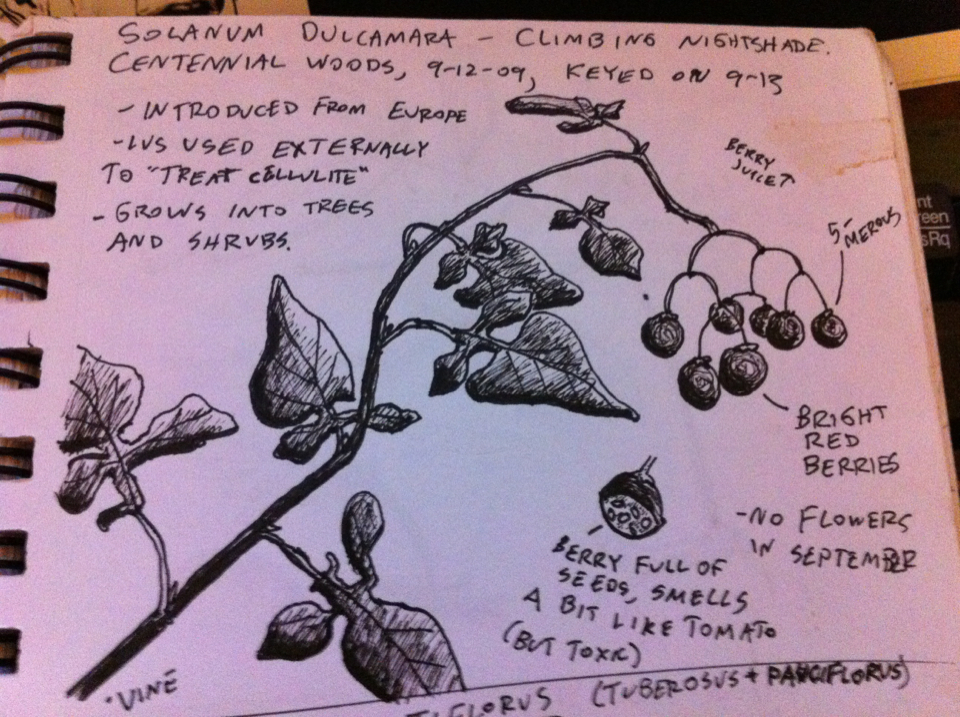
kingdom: Plantae
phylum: Tracheophyta
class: Magnoliopsida
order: Solanales
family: Solanaceae
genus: Solanum
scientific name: Solanum dulcamara
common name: Climbing nightshade
